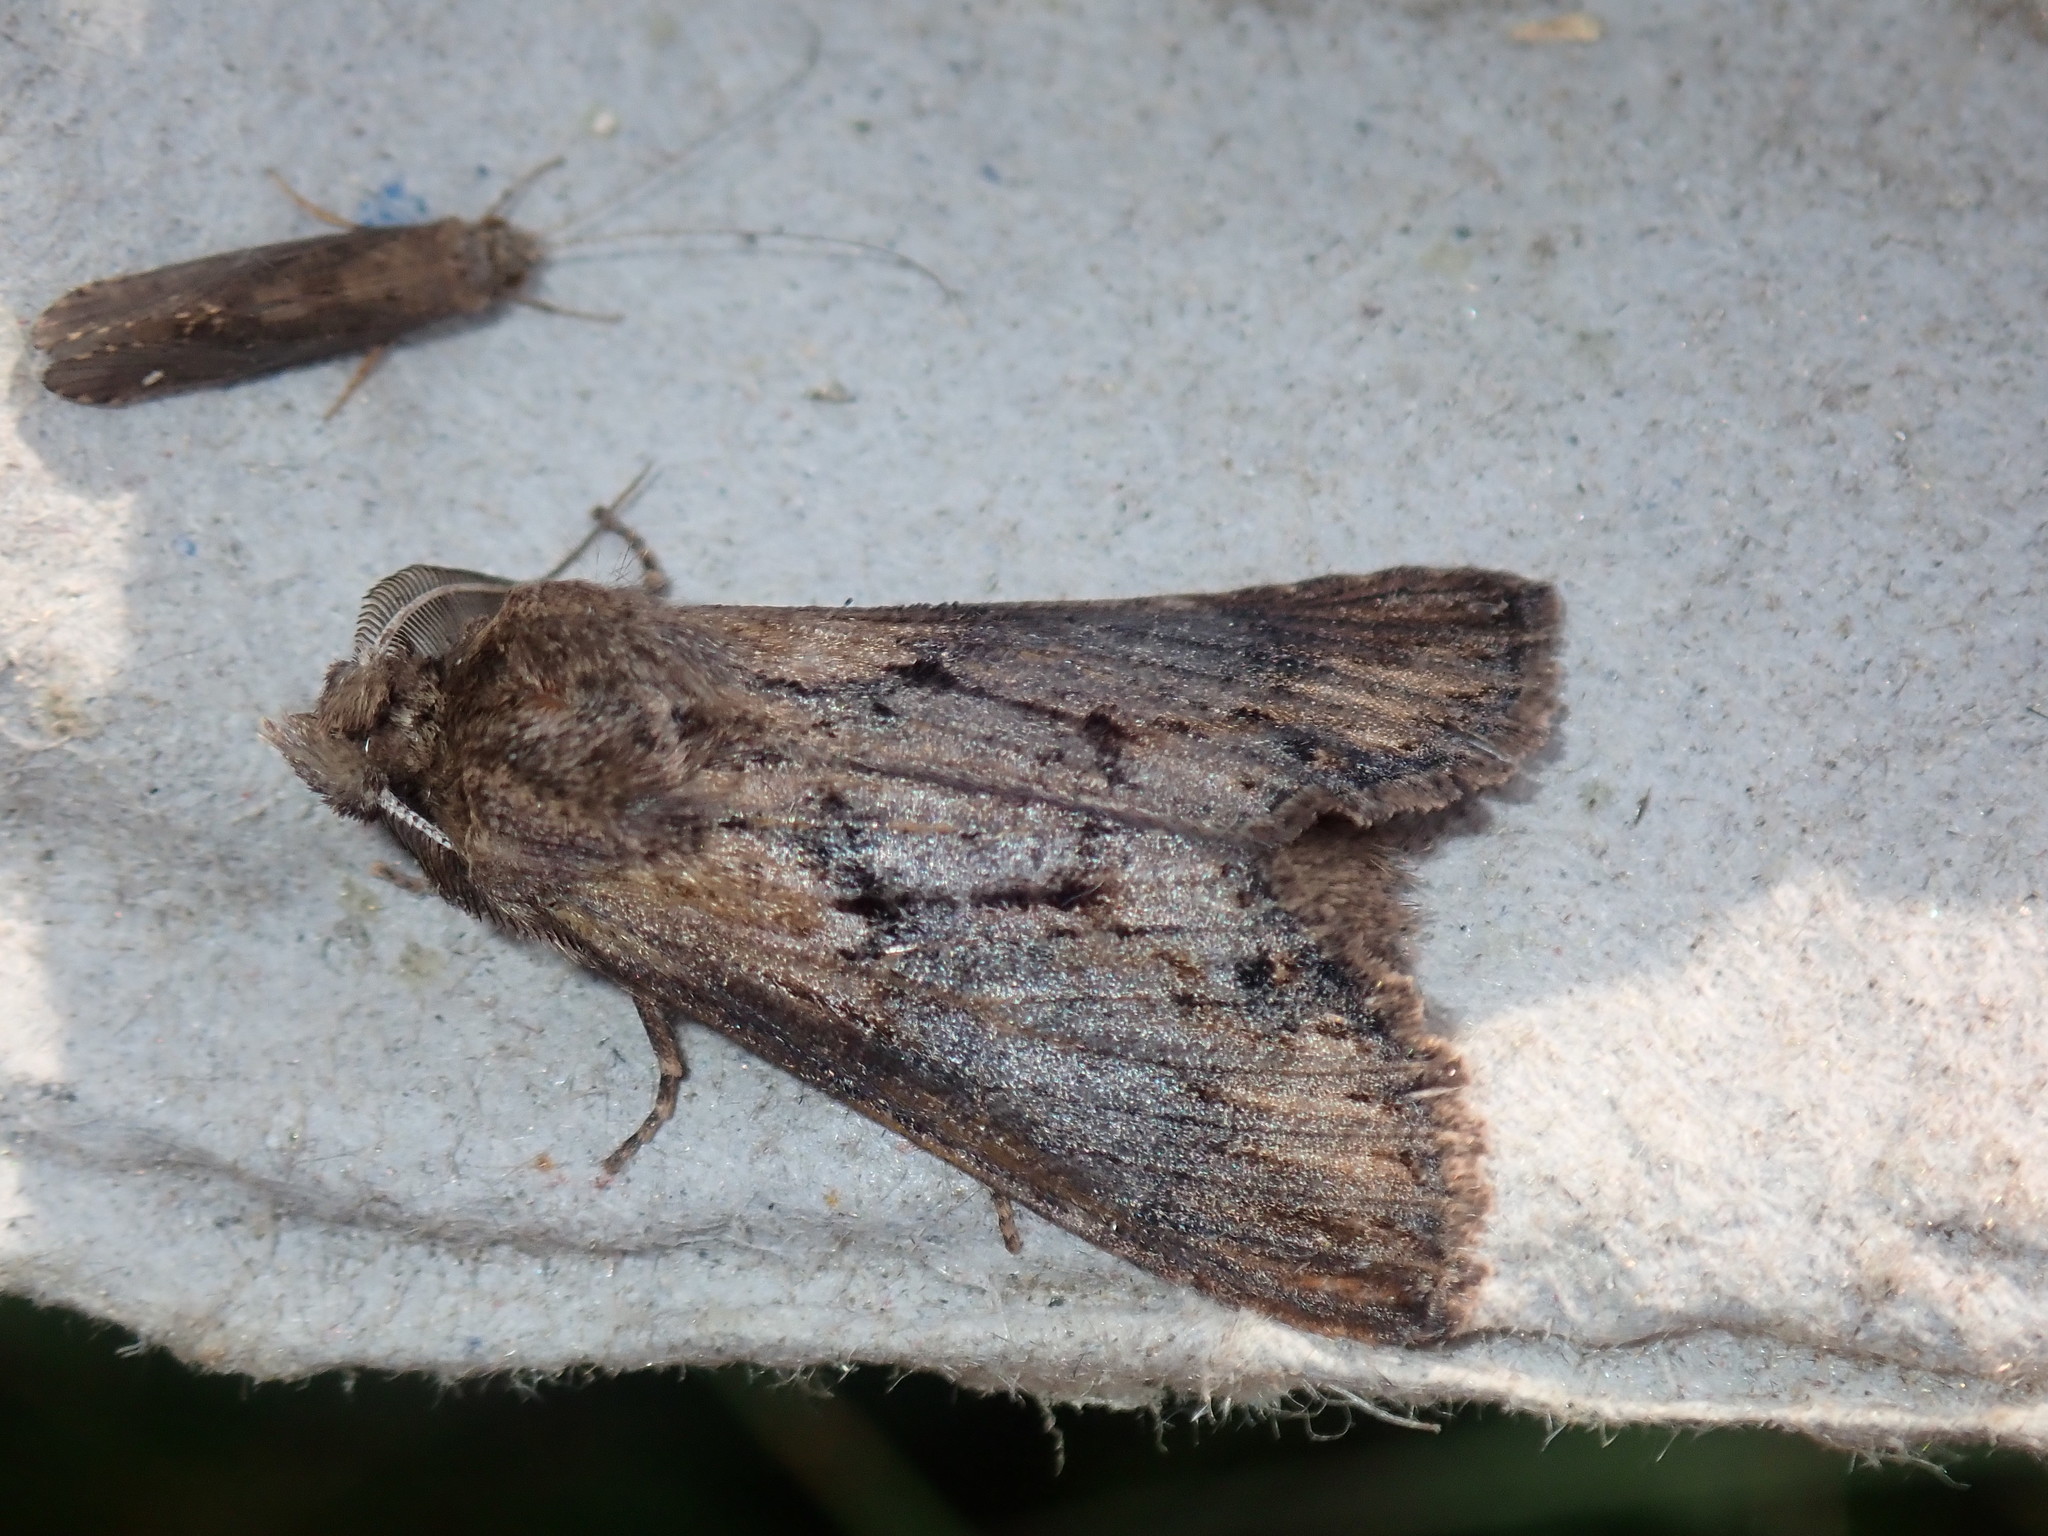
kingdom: Animalia
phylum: Arthropoda
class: Insecta
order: Lepidoptera
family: Notodontidae
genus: Dasylophia
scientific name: Dasylophia thyatiroides
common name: Gray-patched prominent
